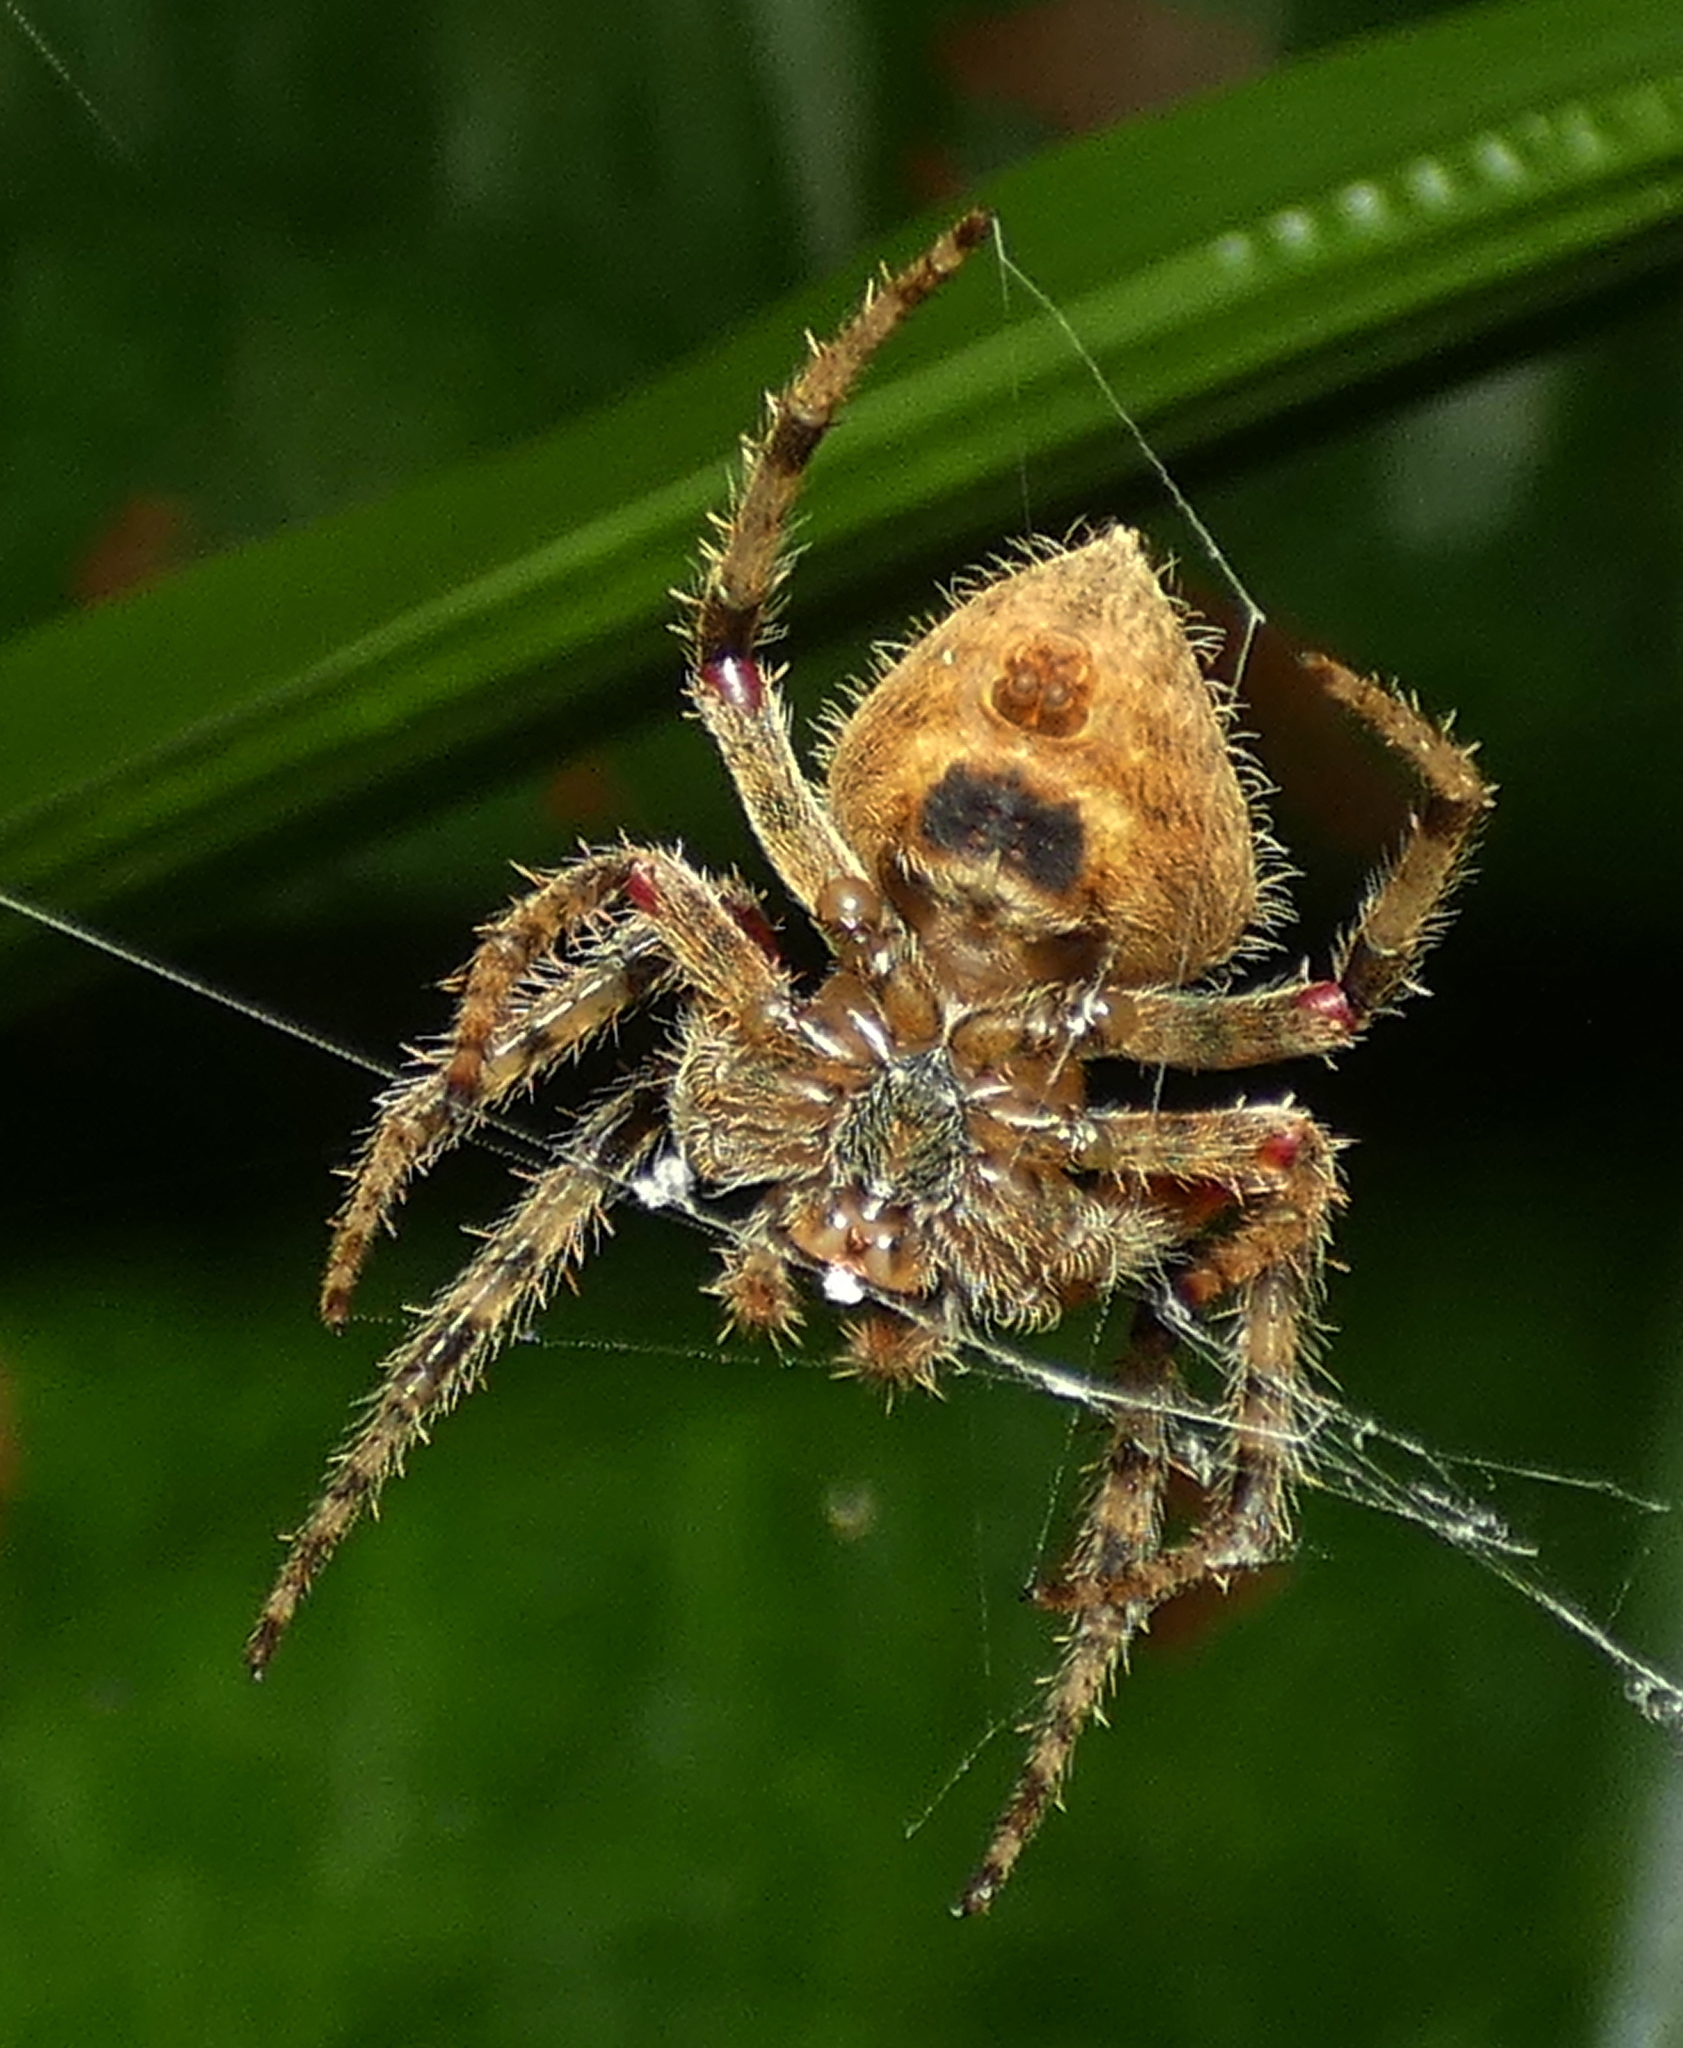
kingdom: Animalia
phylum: Arthropoda
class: Arachnida
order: Araneae
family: Araneidae
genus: Eriophora
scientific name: Eriophora edax
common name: Orb weavers
